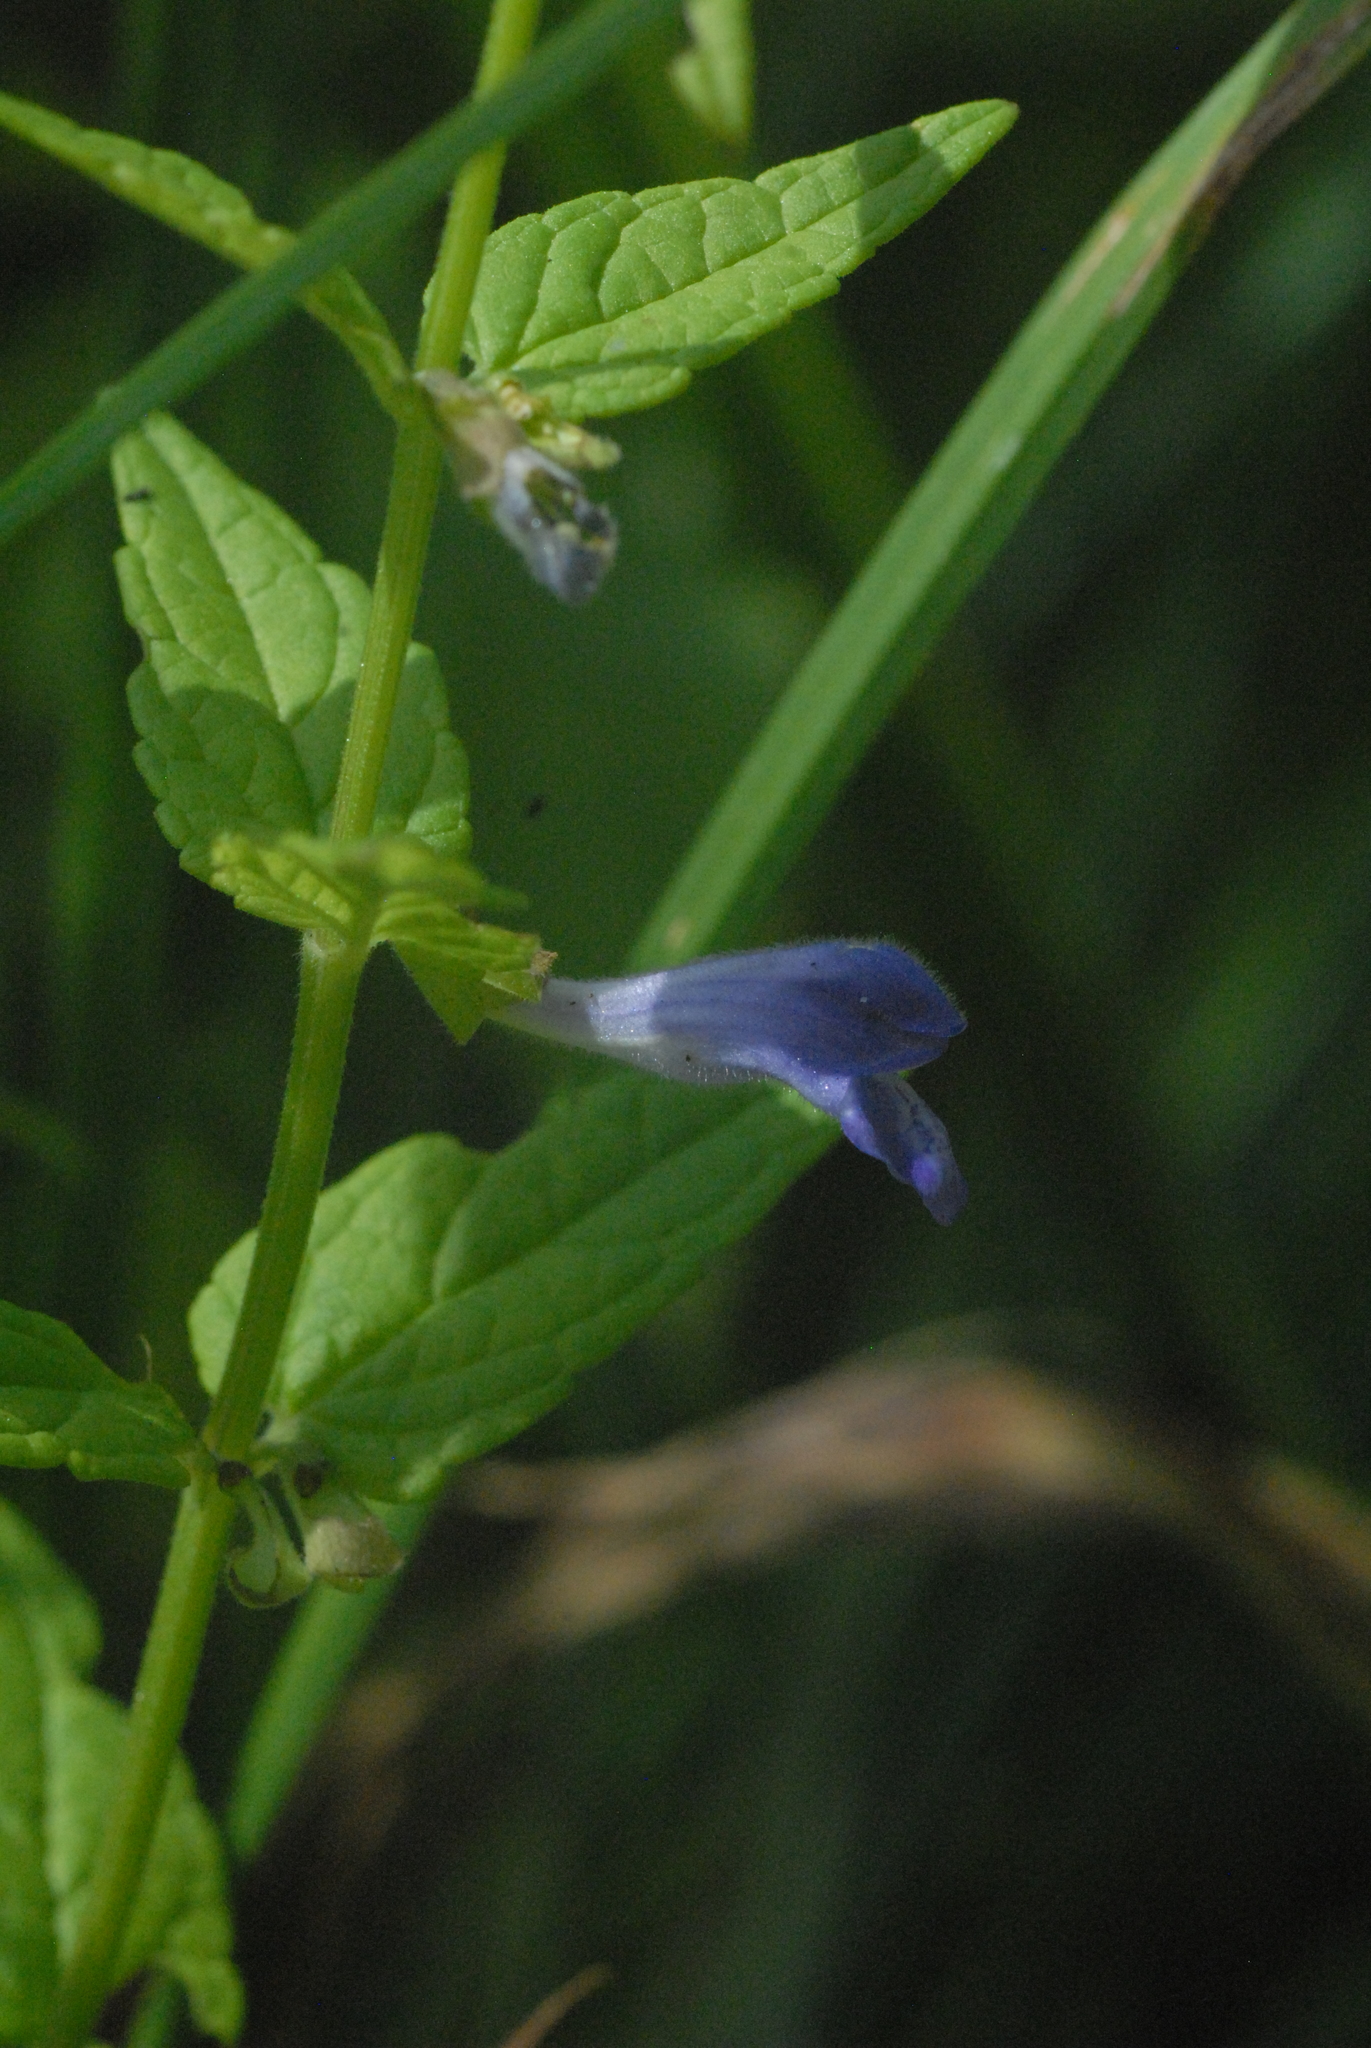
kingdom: Plantae
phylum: Tracheophyta
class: Magnoliopsida
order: Lamiales
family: Lamiaceae
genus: Scutellaria
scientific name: Scutellaria galericulata
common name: Skullcap
